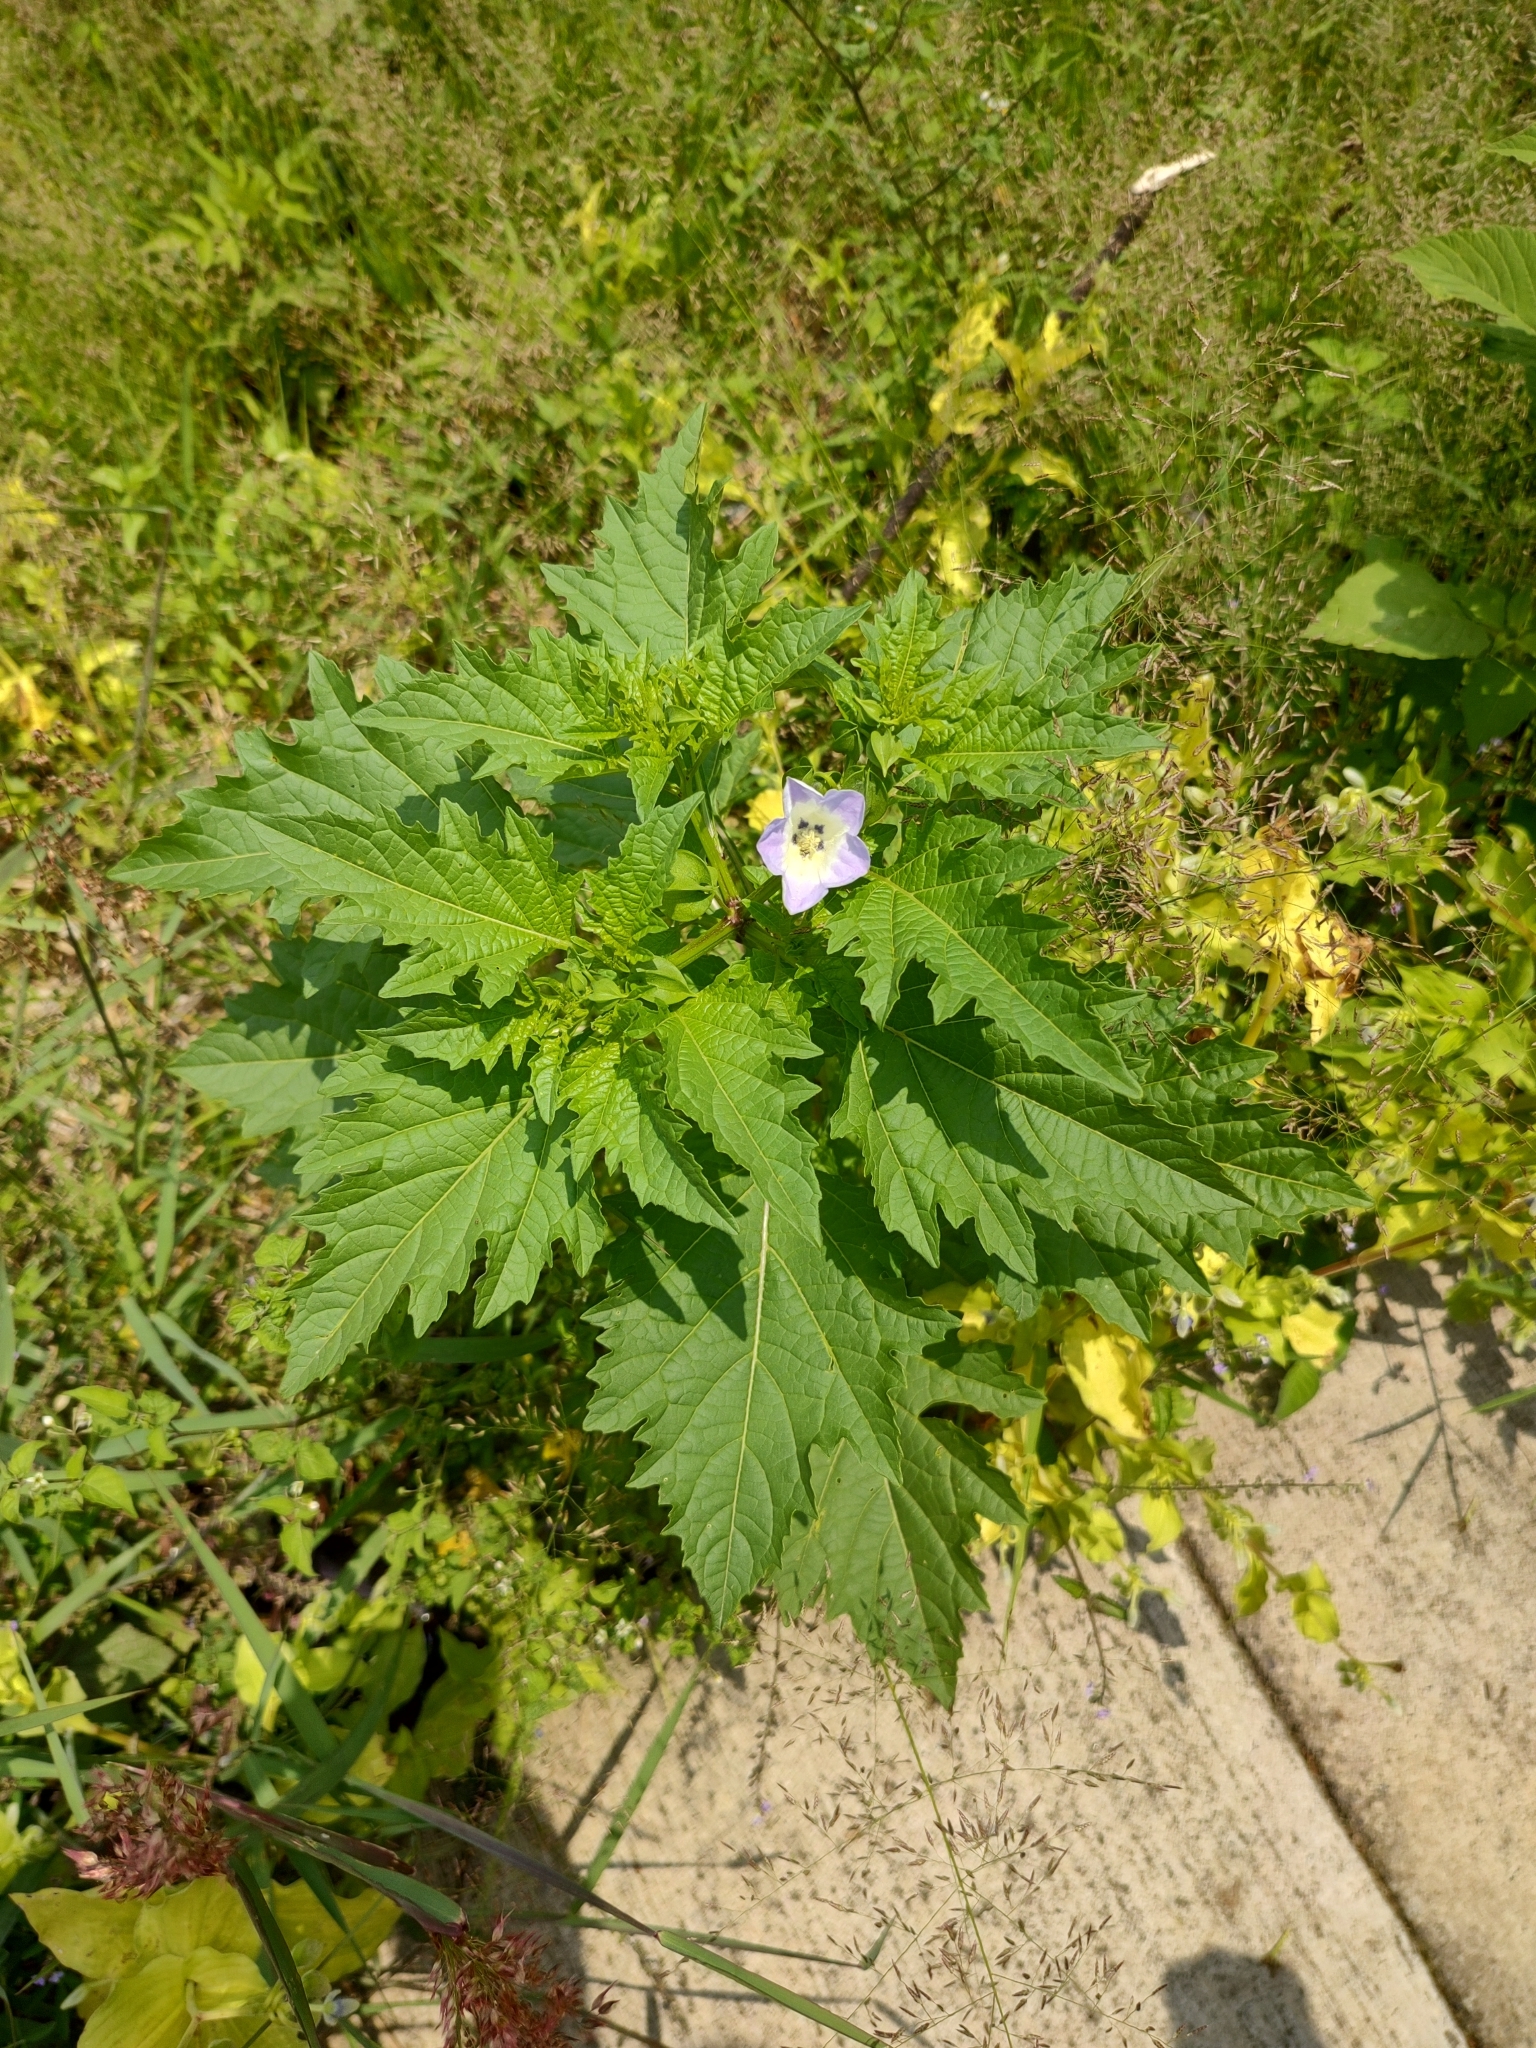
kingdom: Plantae
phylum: Tracheophyta
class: Magnoliopsida
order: Solanales
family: Solanaceae
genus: Nicandra
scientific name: Nicandra physalodes
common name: Apple-of-peru
